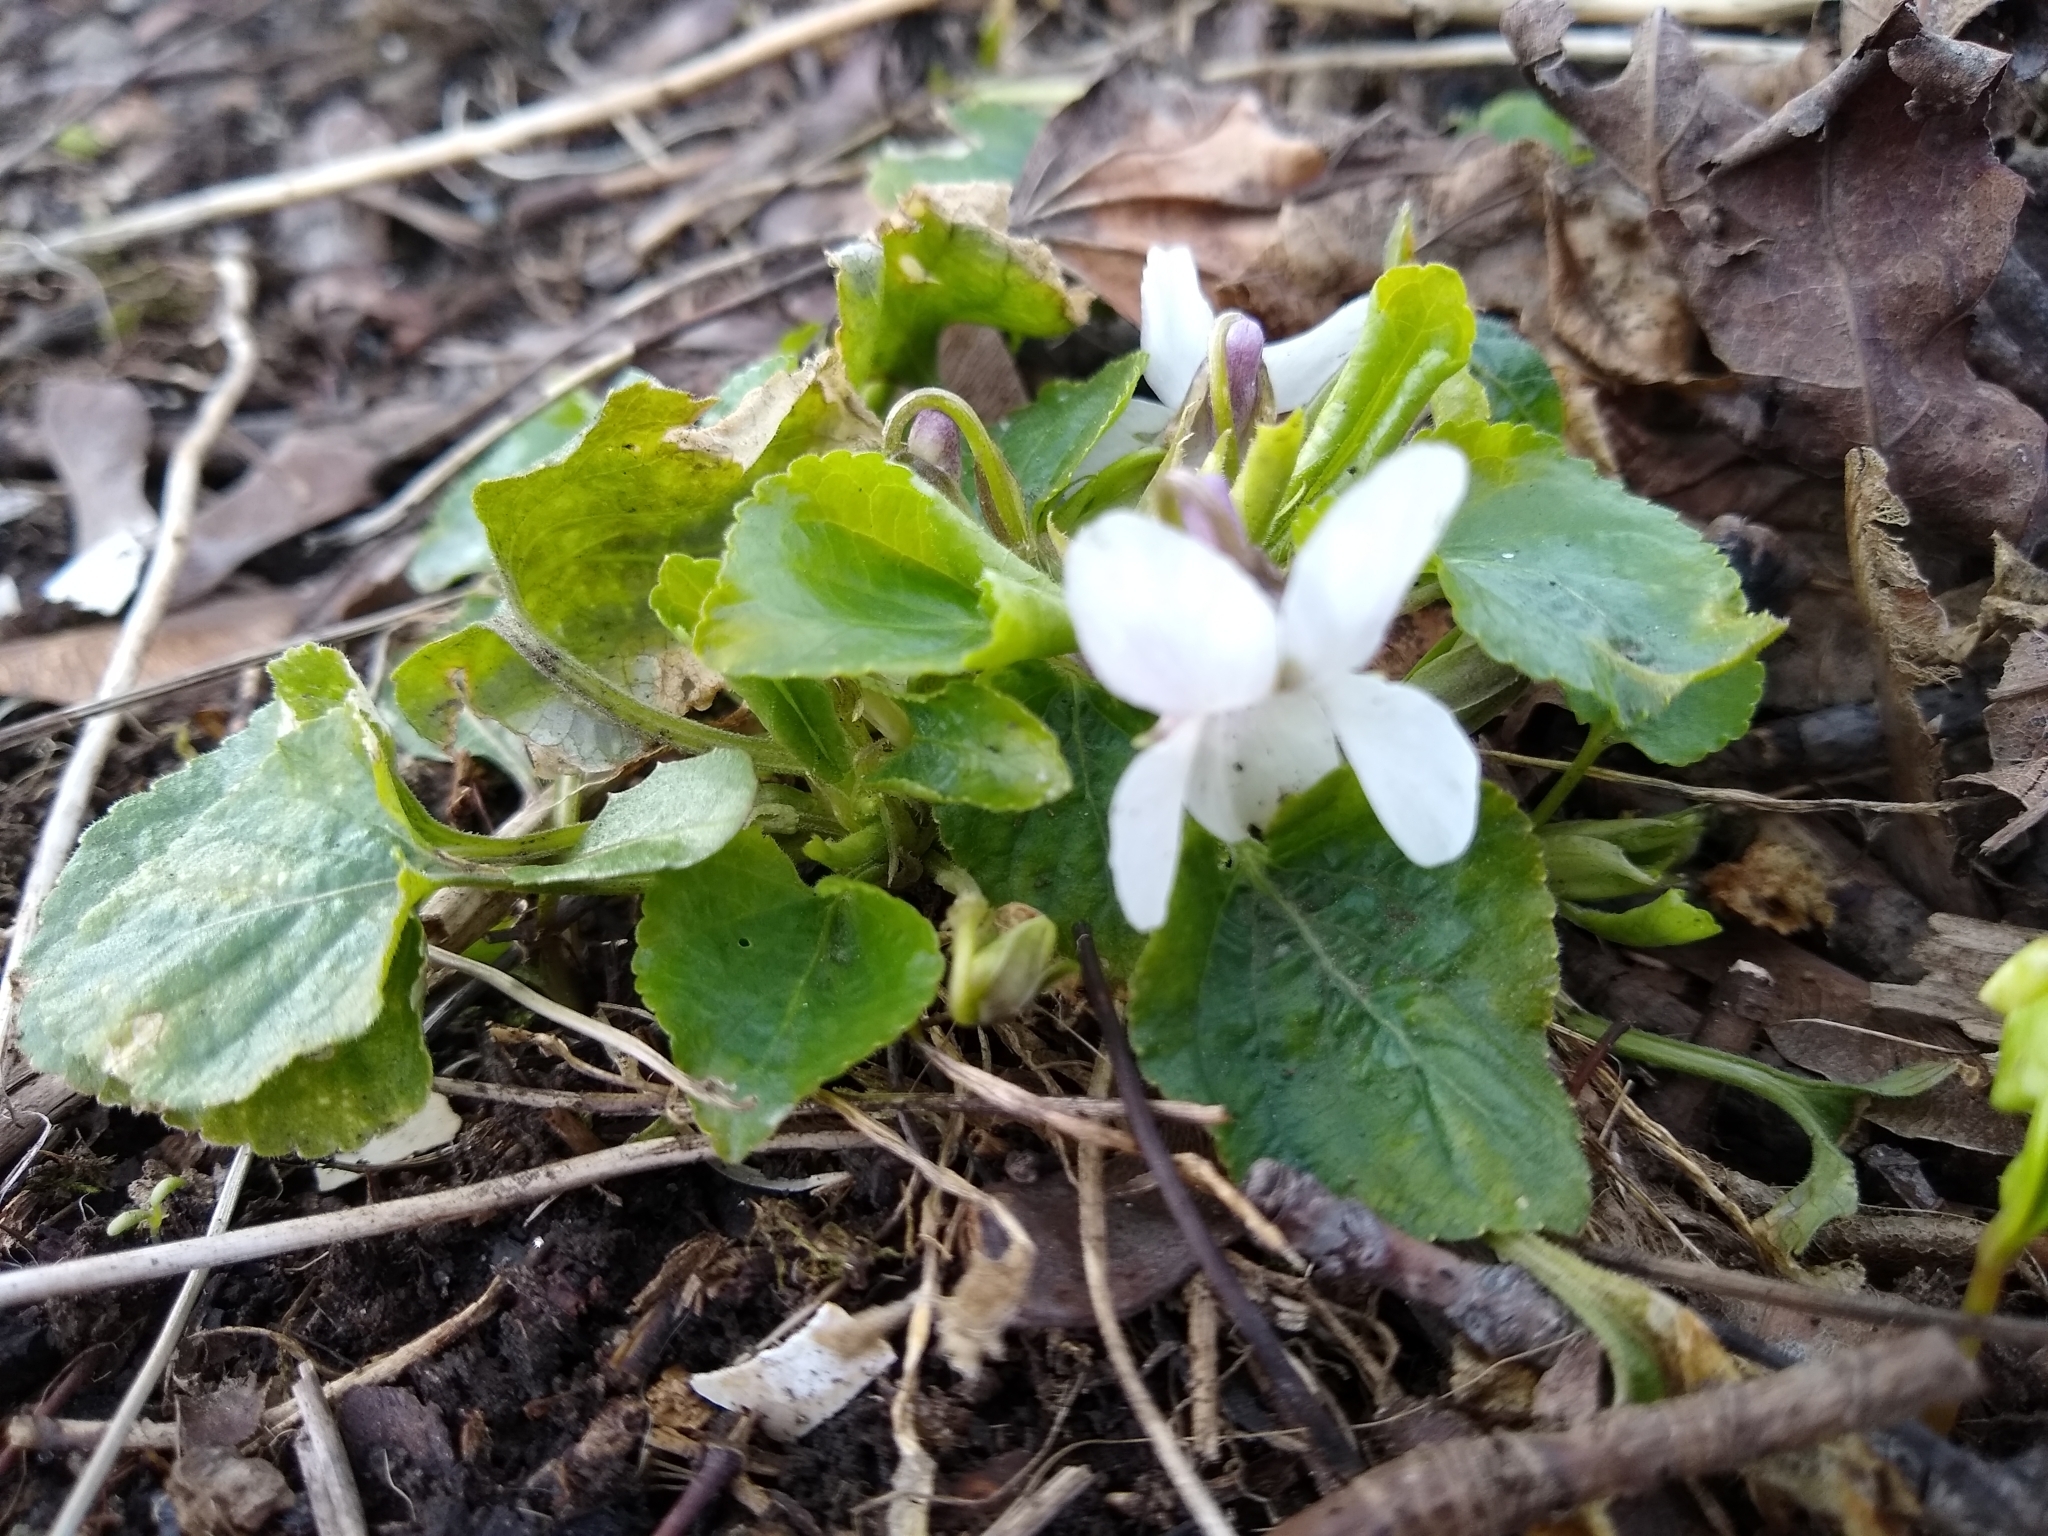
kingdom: Plantae
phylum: Tracheophyta
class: Magnoliopsida
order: Malpighiales
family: Violaceae
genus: Viola
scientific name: Viola odorata
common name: Sweet violet
